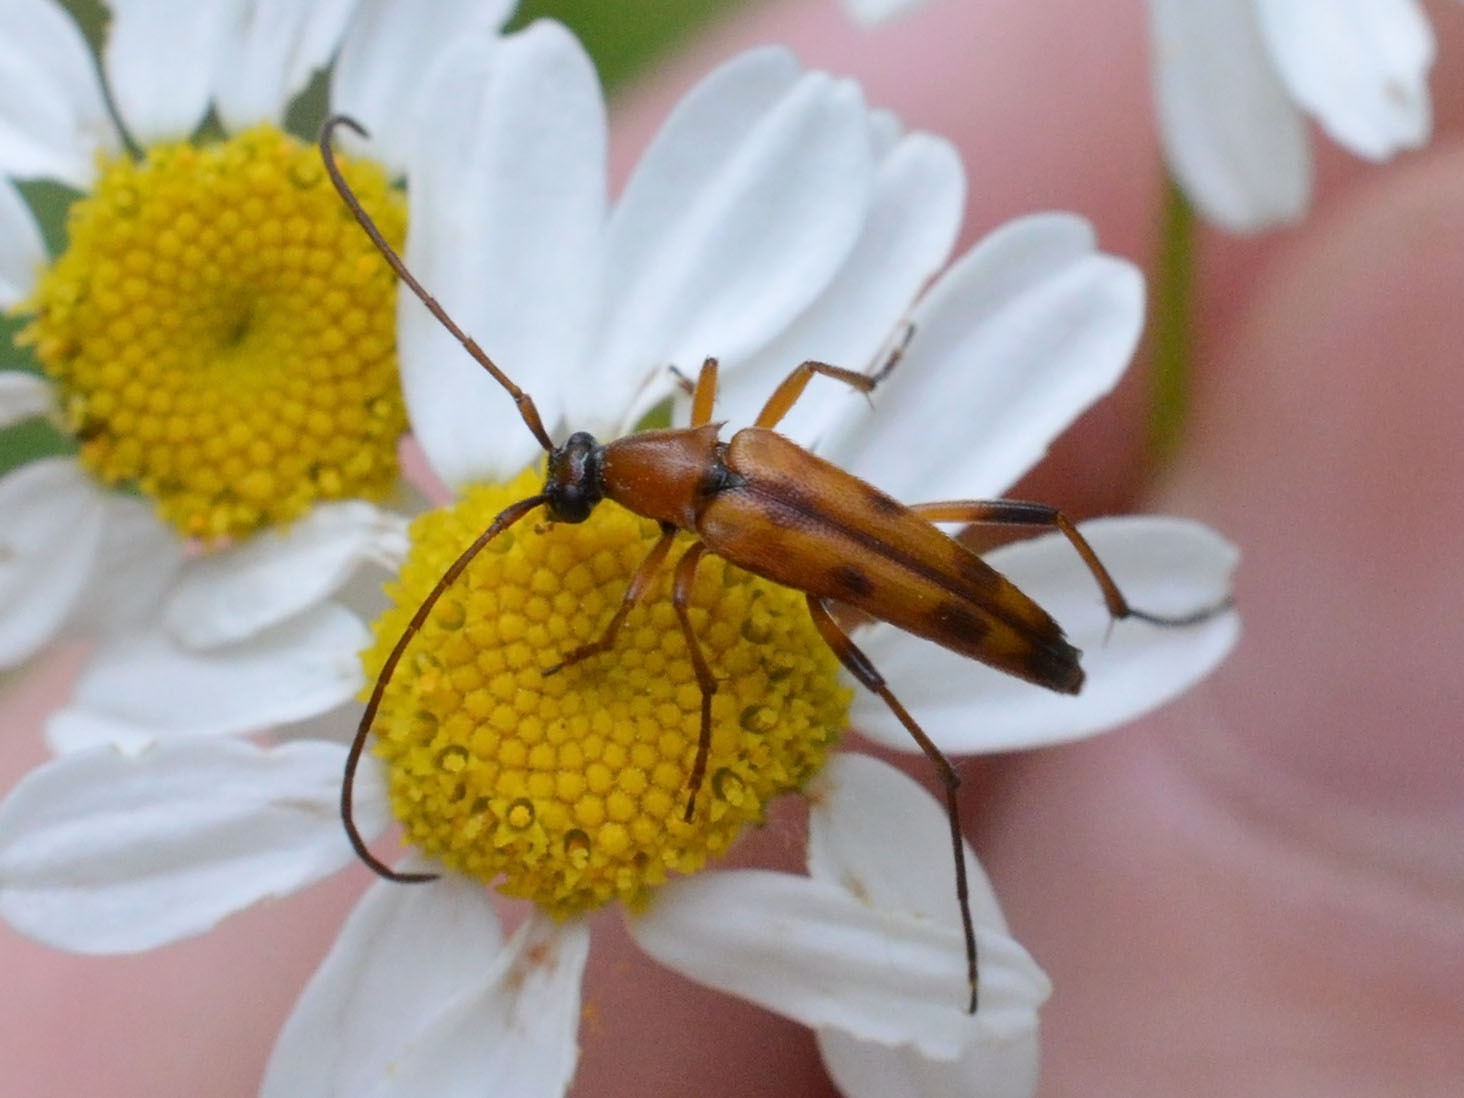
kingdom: Animalia
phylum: Arthropoda
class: Insecta
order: Coleoptera
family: Cerambycidae
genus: Stenurella
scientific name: Stenurella septempunctata
